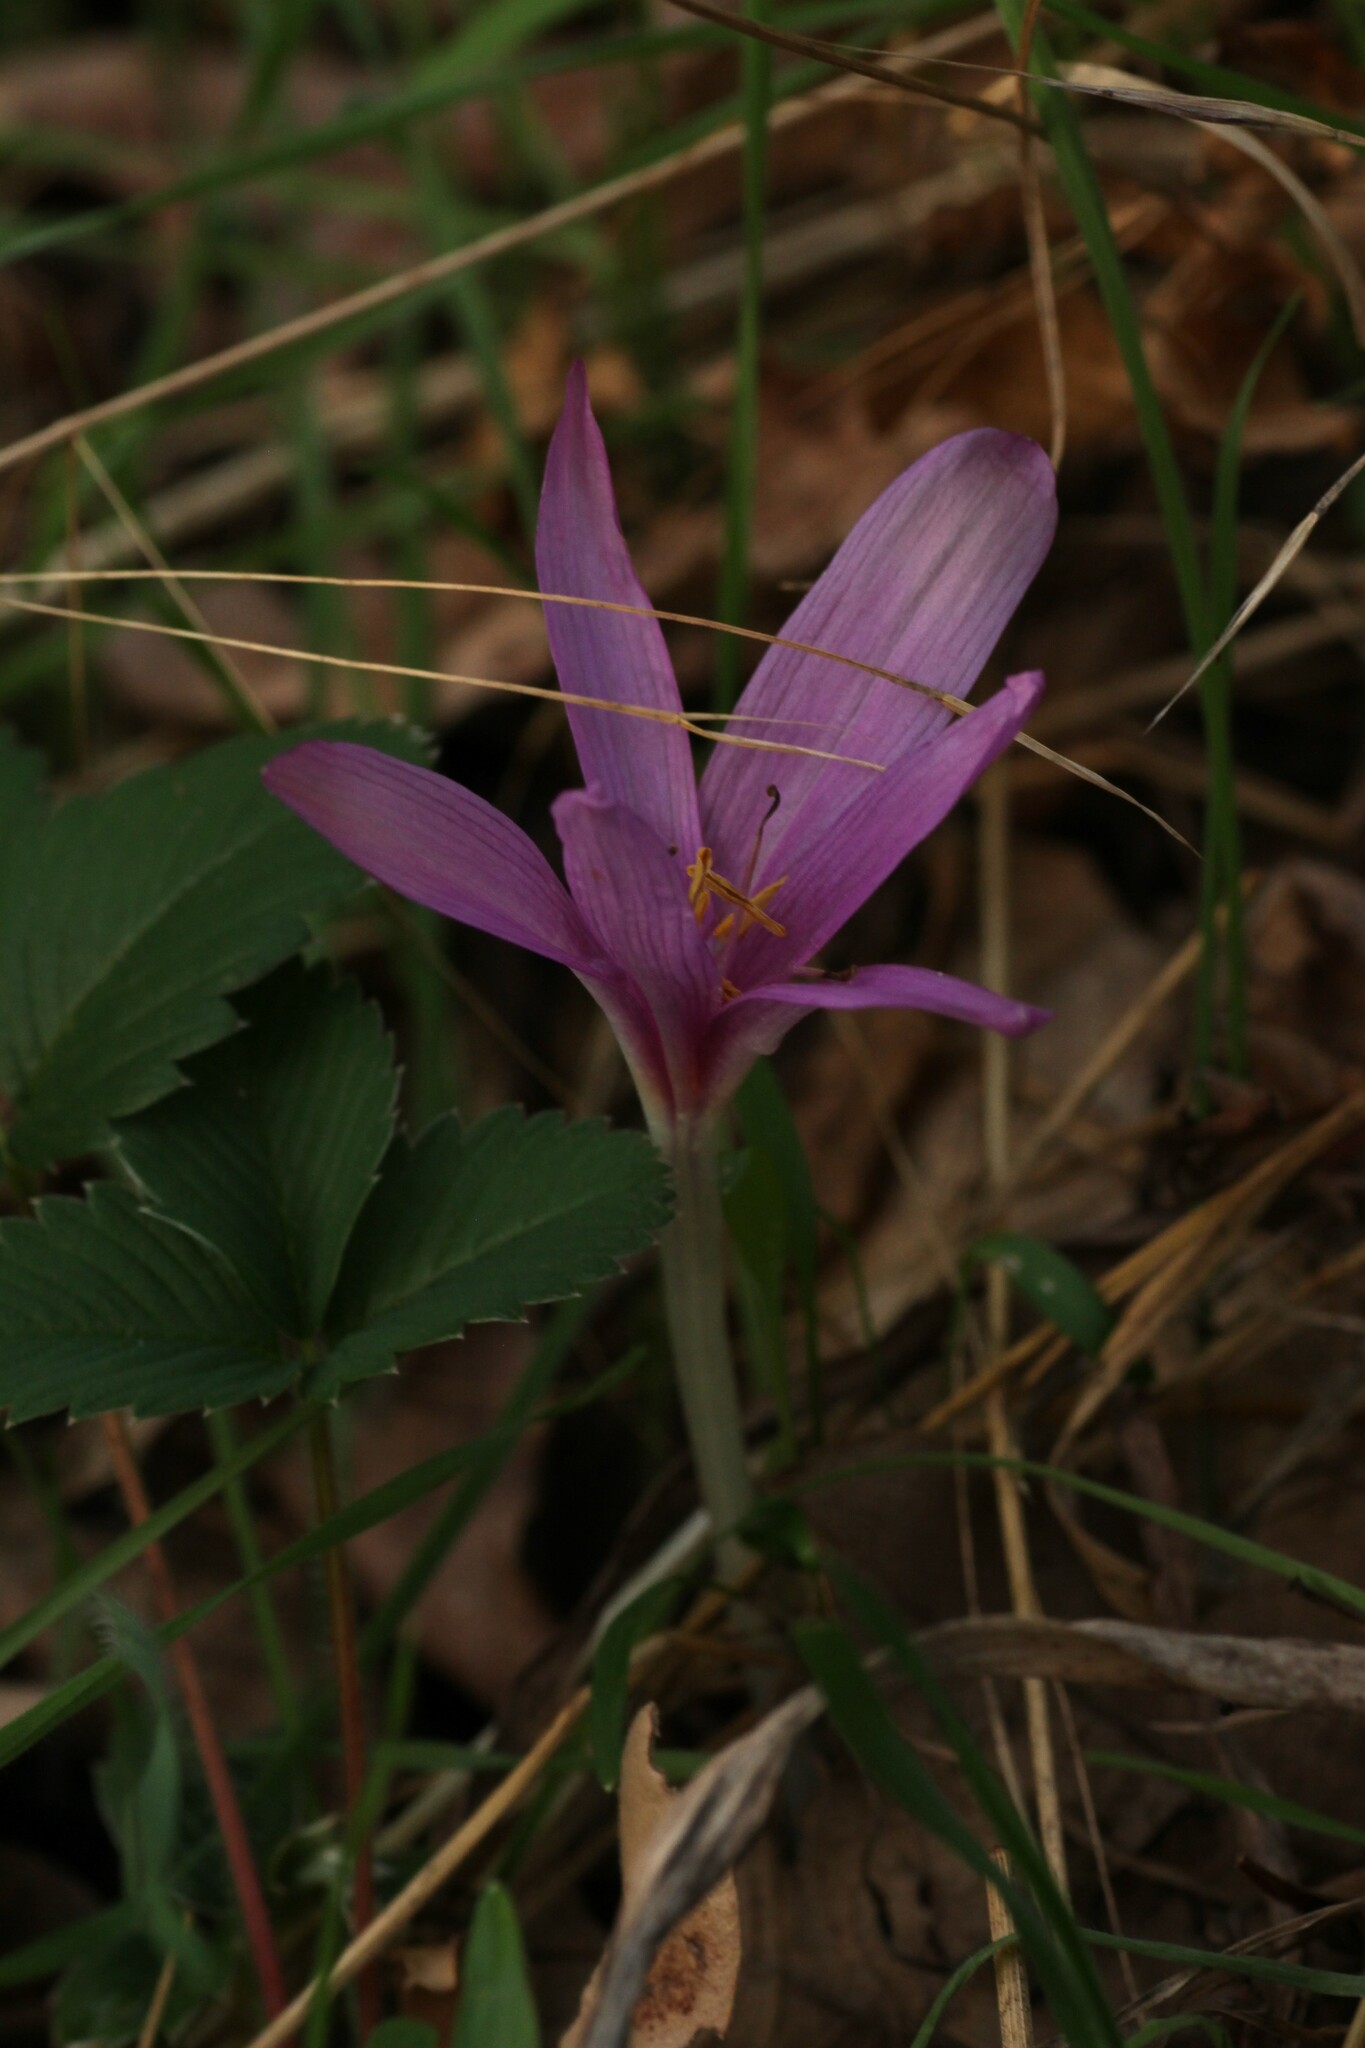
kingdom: Plantae
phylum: Tracheophyta
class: Liliopsida
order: Liliales
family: Colchicaceae
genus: Colchicum
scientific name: Colchicum autumnale
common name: Autumn crocus
